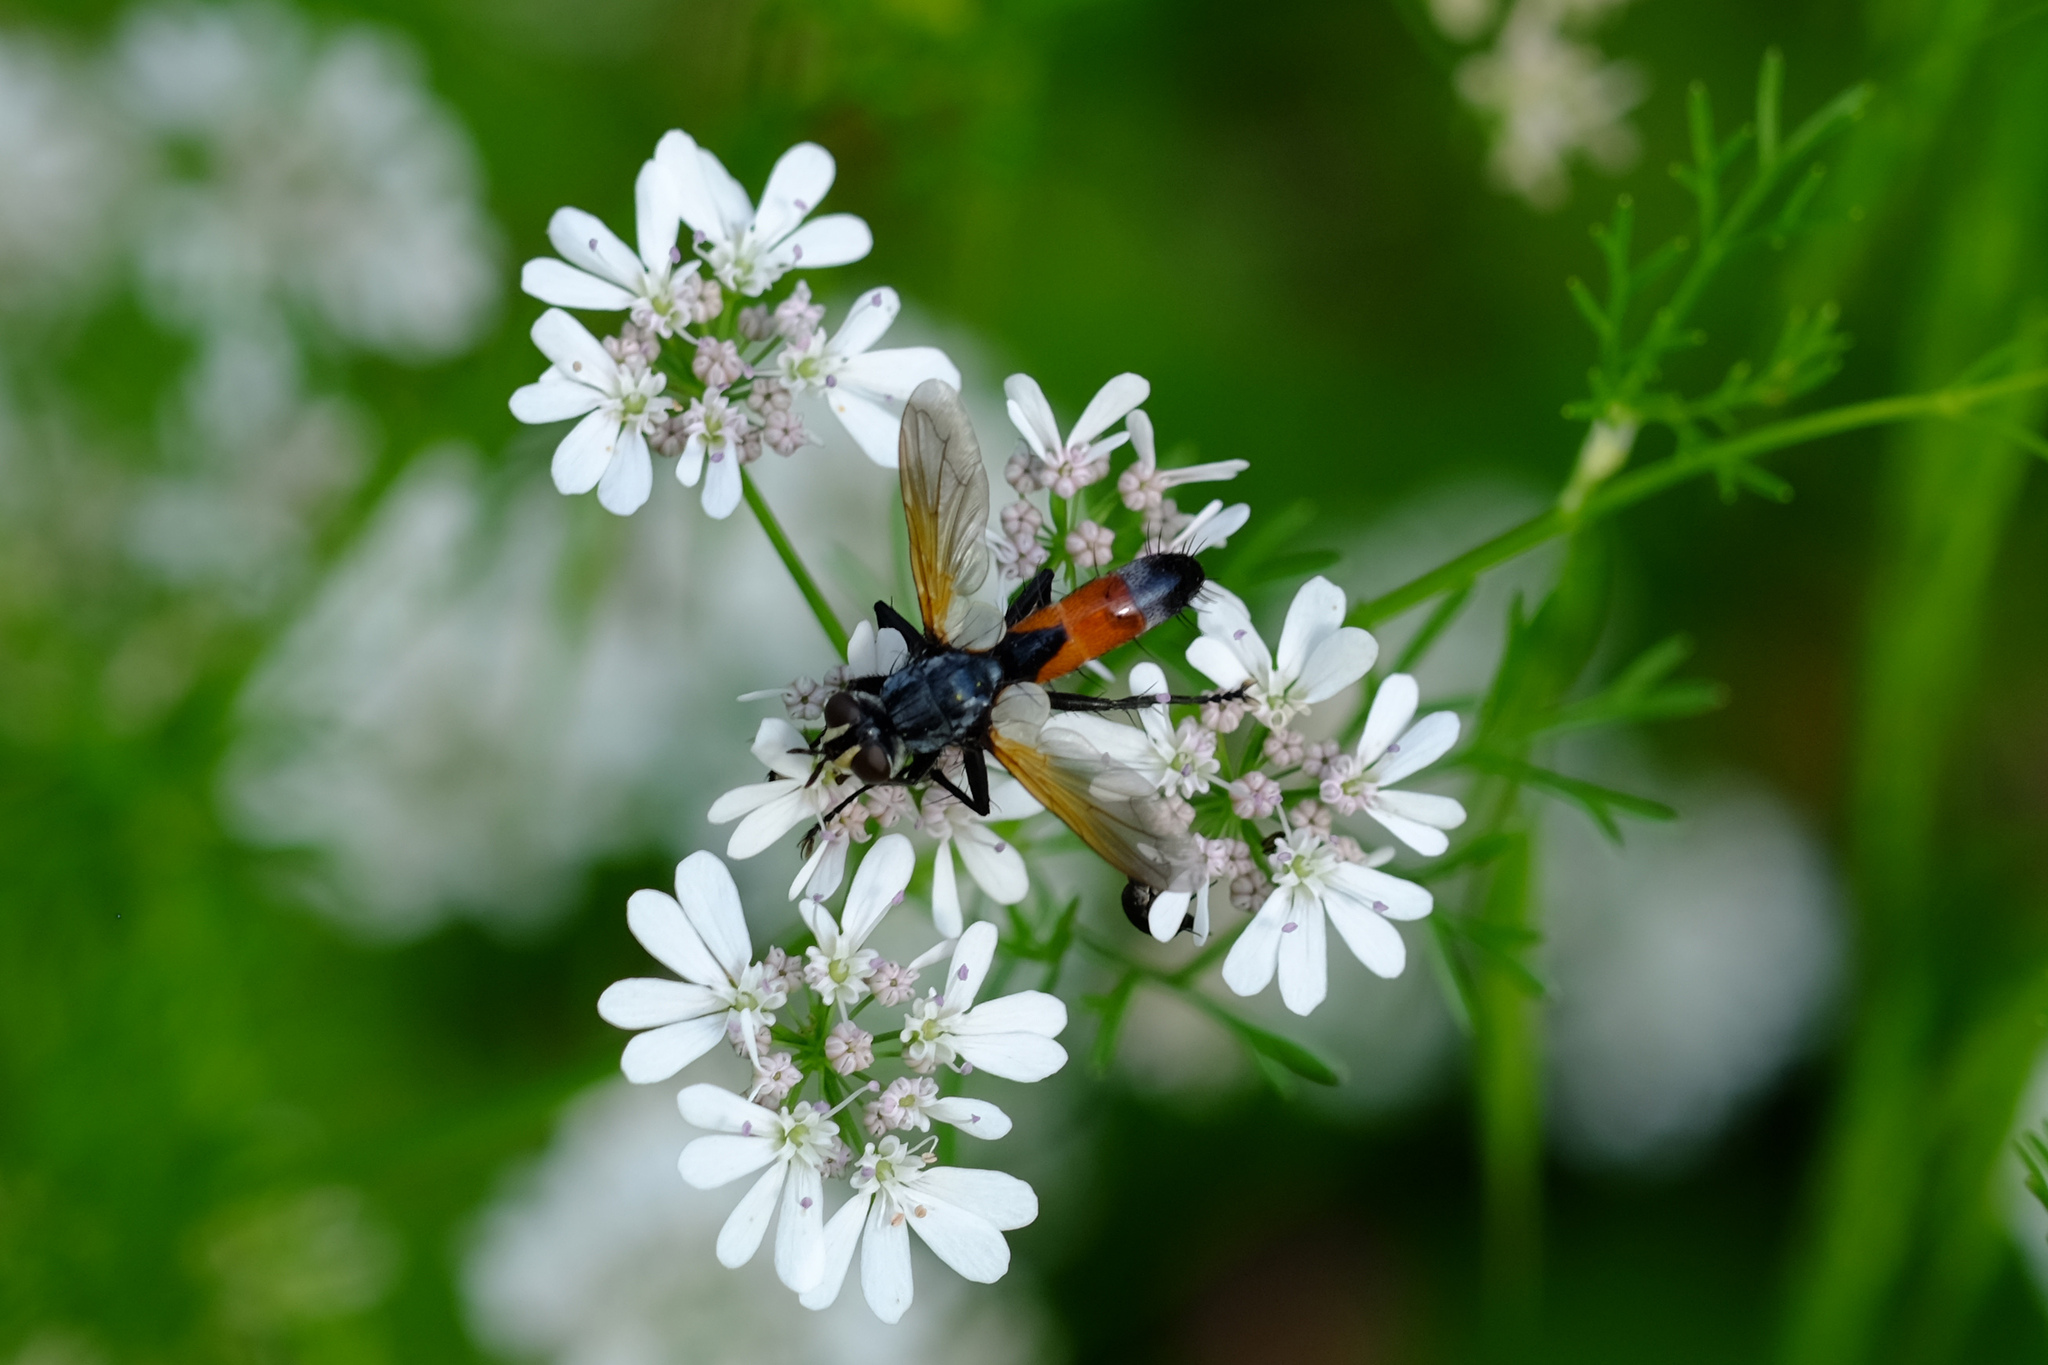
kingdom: Animalia
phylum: Arthropoda
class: Insecta
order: Diptera
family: Tachinidae
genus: Cylindromyia
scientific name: Cylindromyia intermedia
